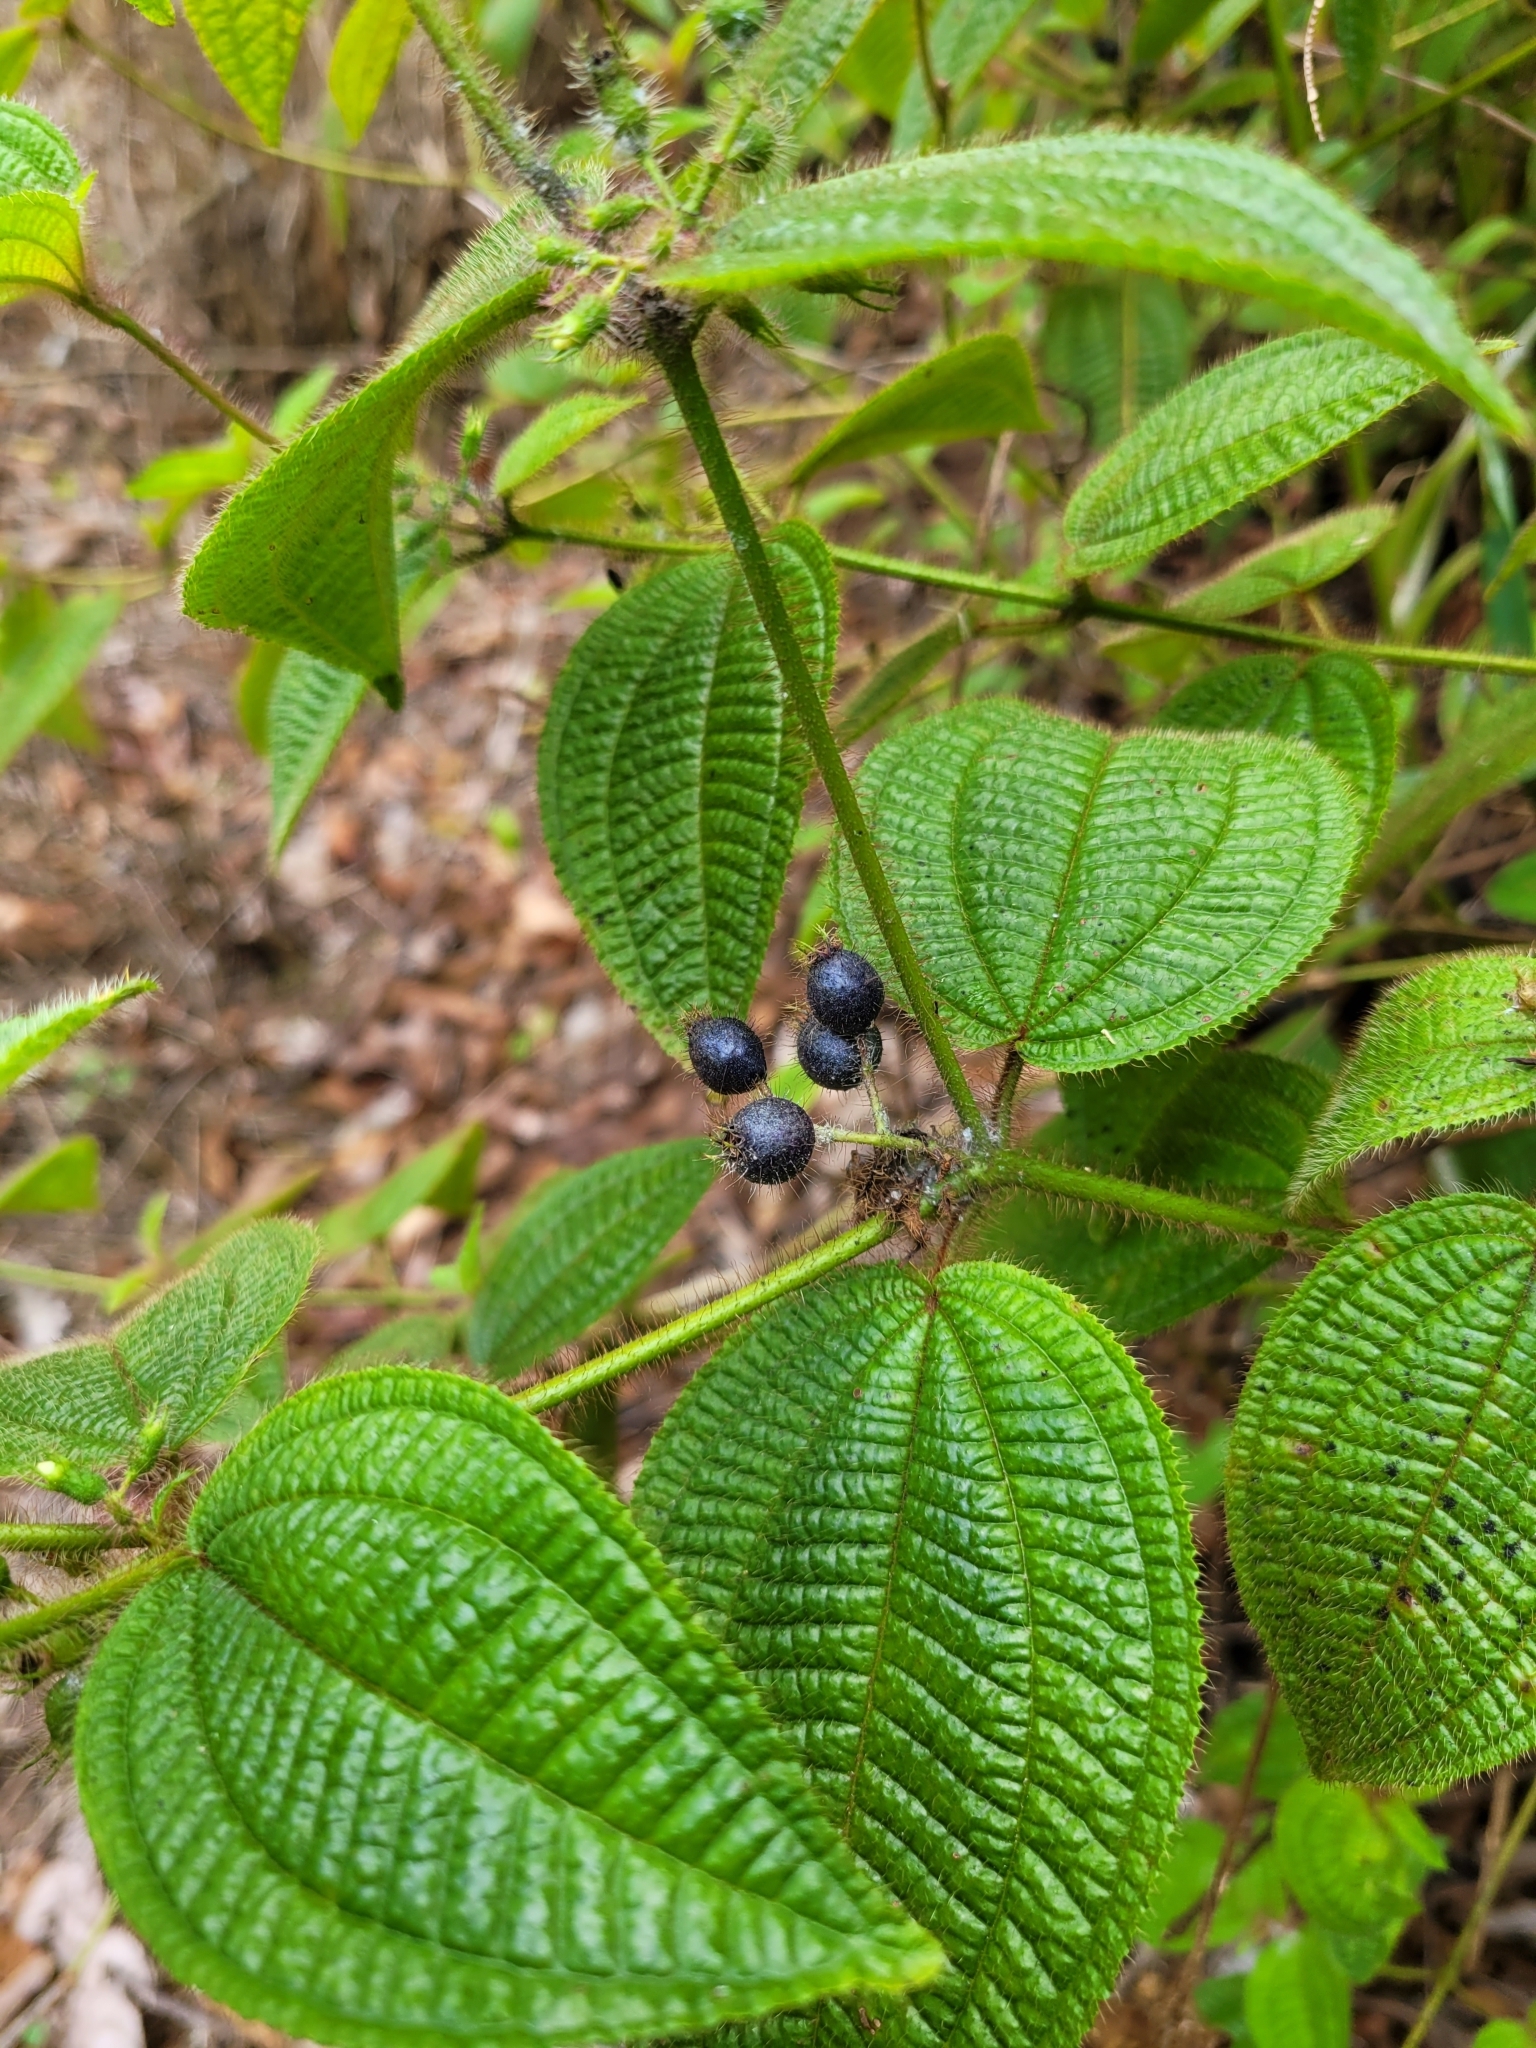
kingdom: Plantae
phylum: Tracheophyta
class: Magnoliopsida
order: Myrtales
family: Melastomataceae
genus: Miconia
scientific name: Miconia crenata
